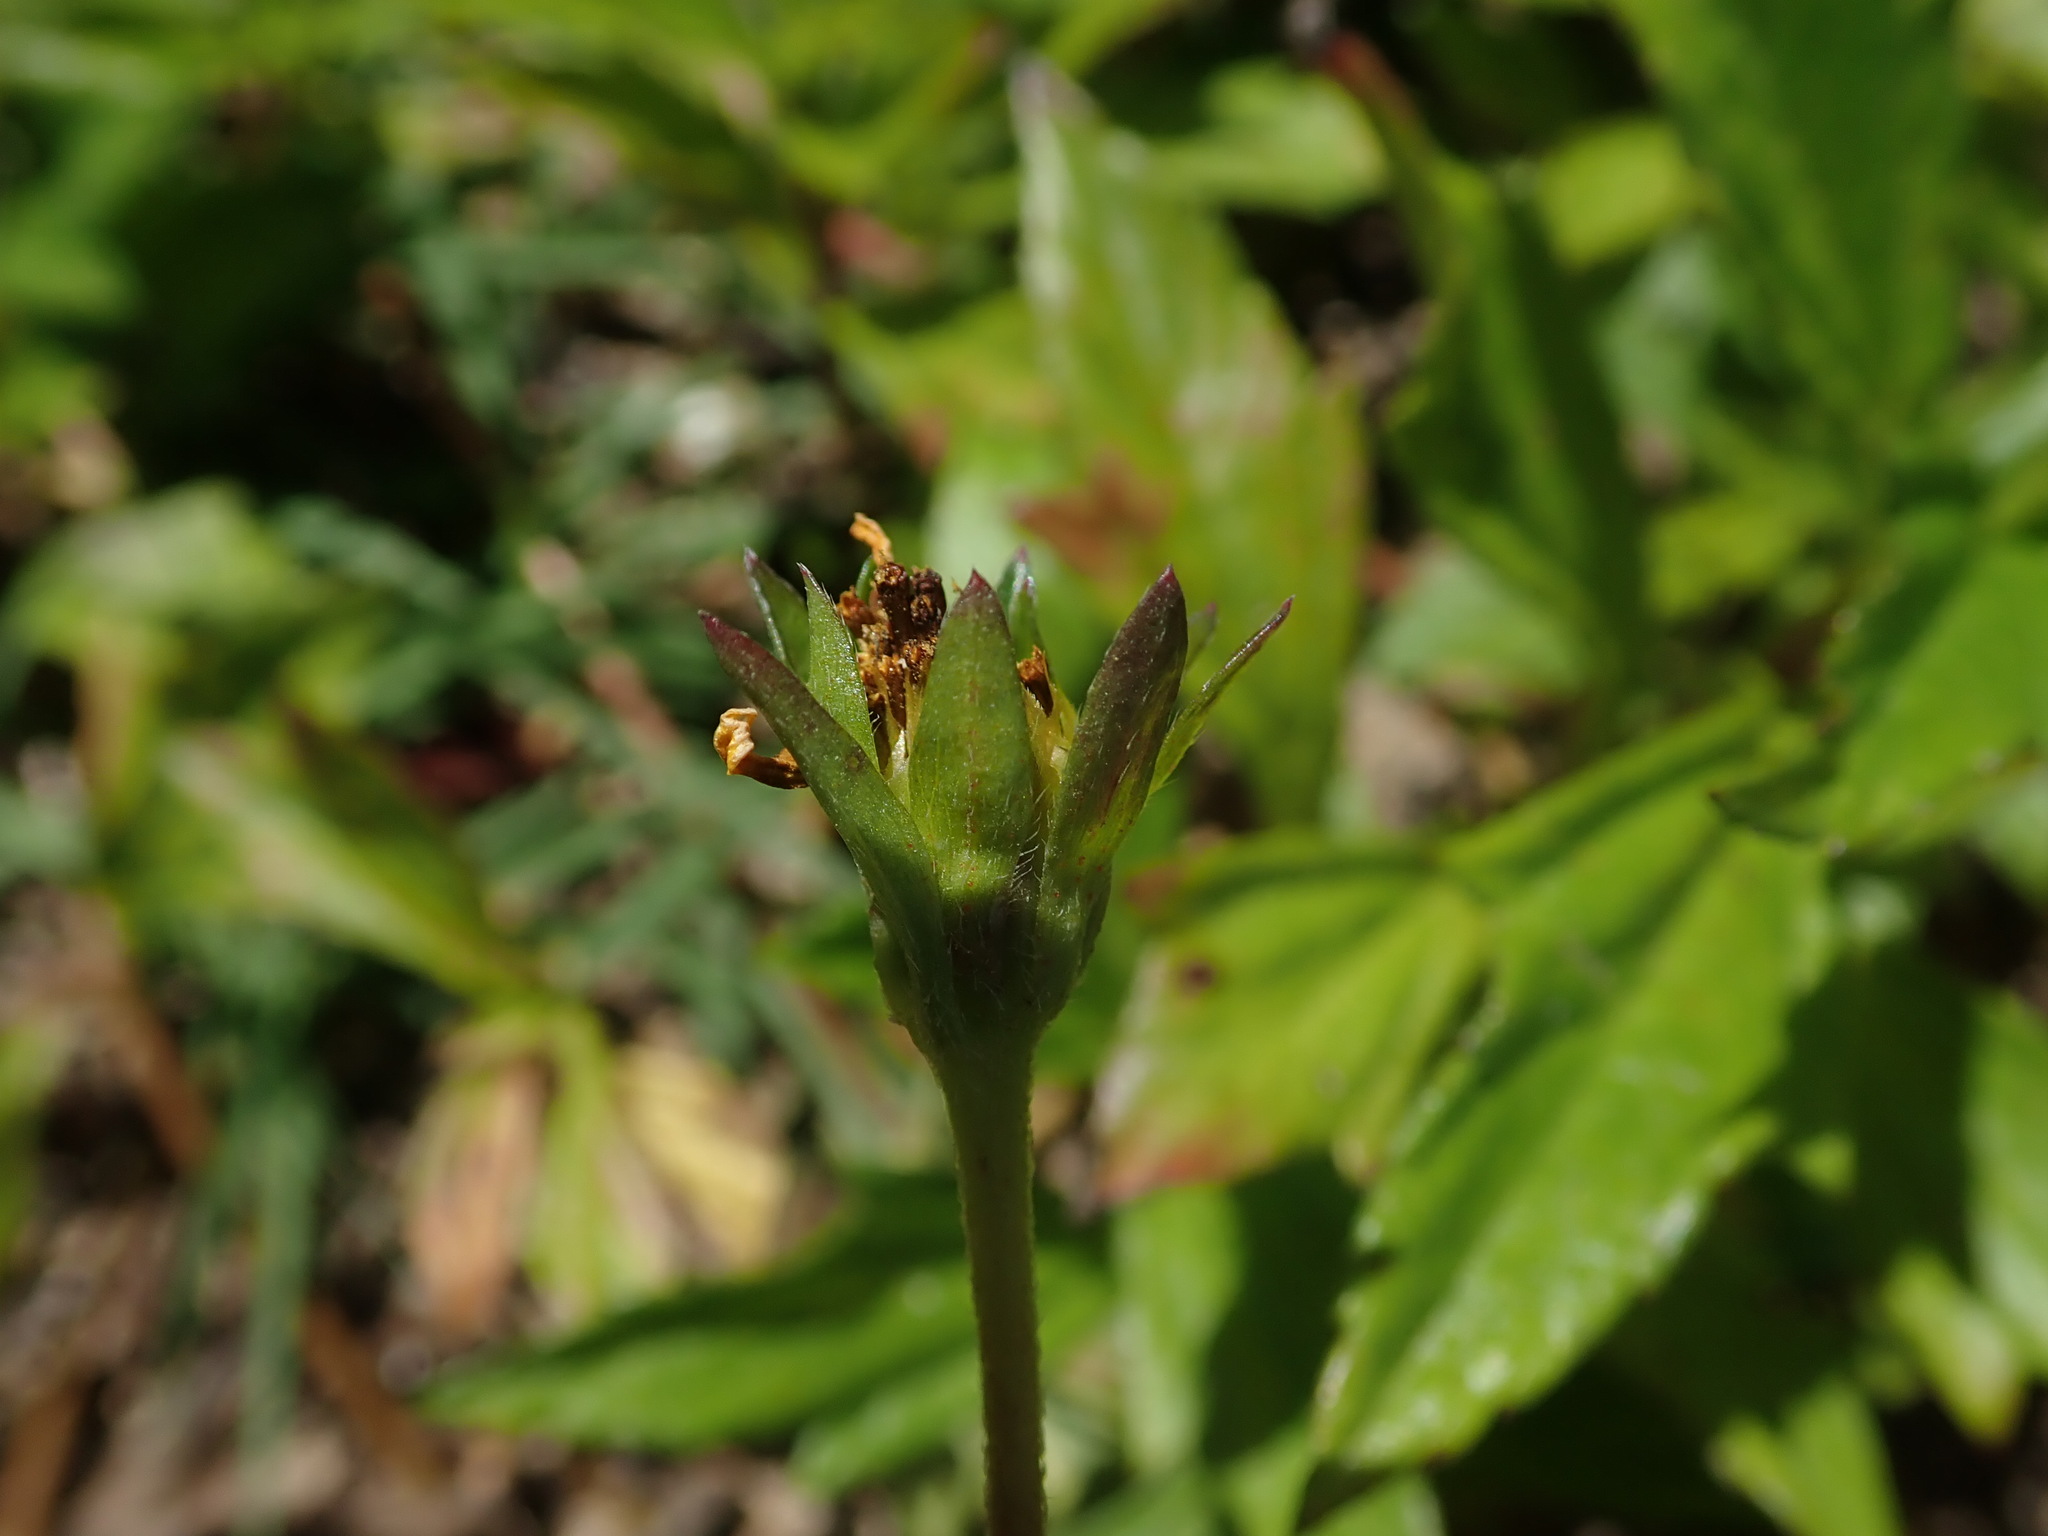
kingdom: Plantae
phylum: Tracheophyta
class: Magnoliopsida
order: Asterales
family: Asteraceae
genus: Sphagneticola
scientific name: Sphagneticola trilobata
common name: Bay biscayne creeping-oxeye
